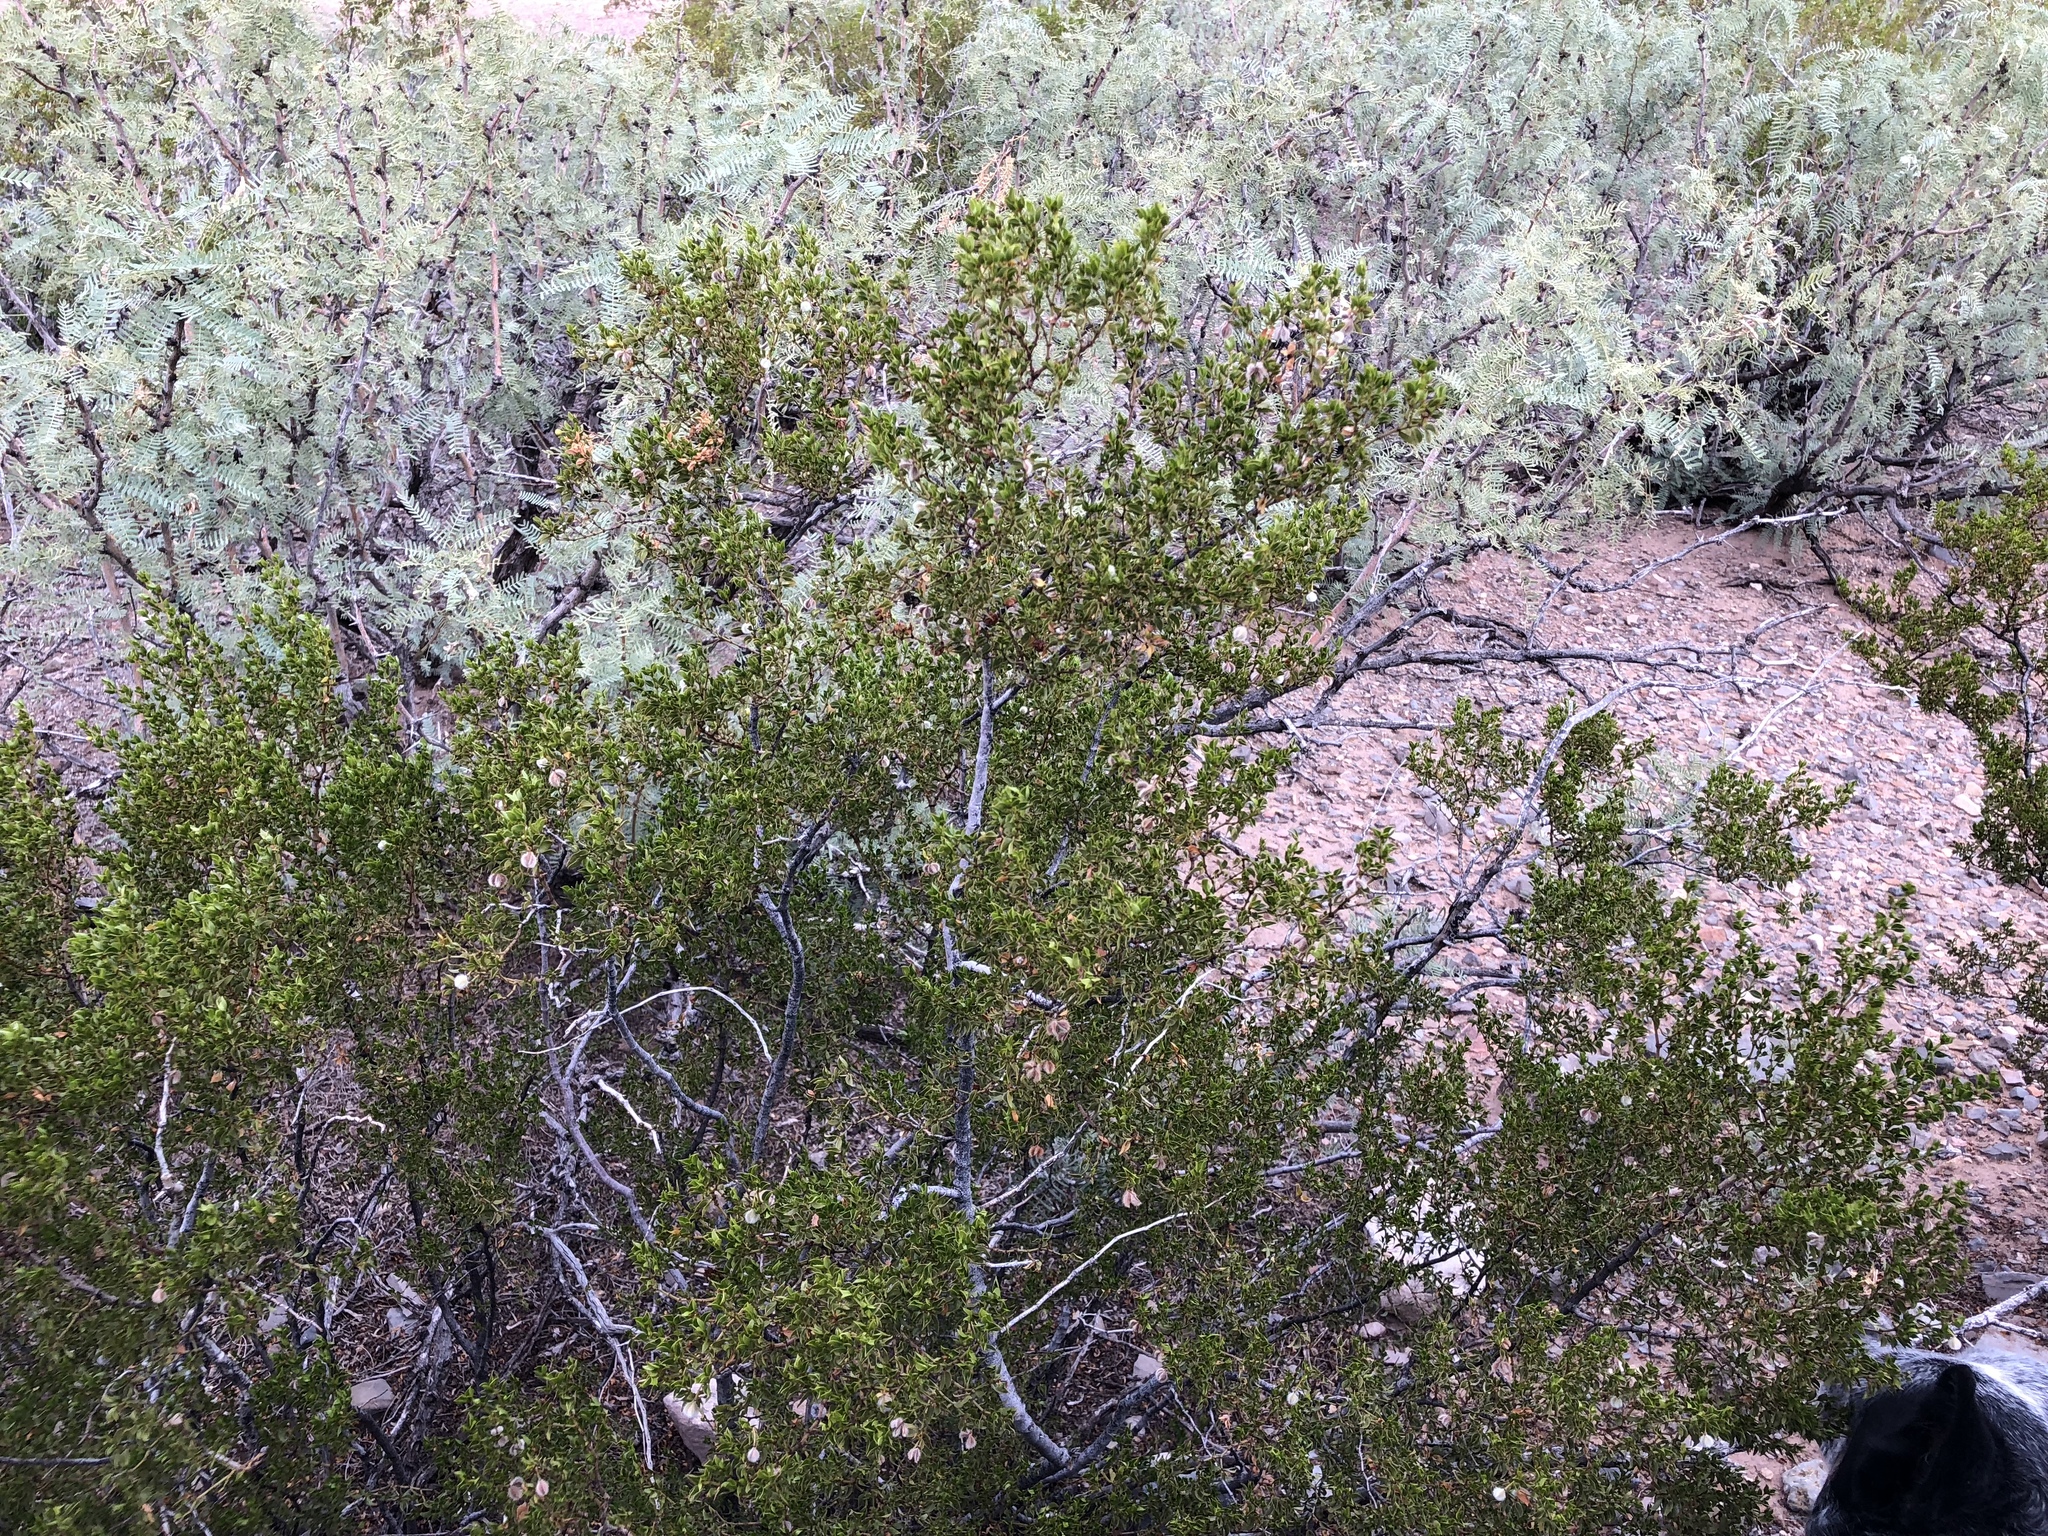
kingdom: Plantae
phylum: Tracheophyta
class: Magnoliopsida
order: Zygophyllales
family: Zygophyllaceae
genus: Larrea
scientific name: Larrea tridentata
